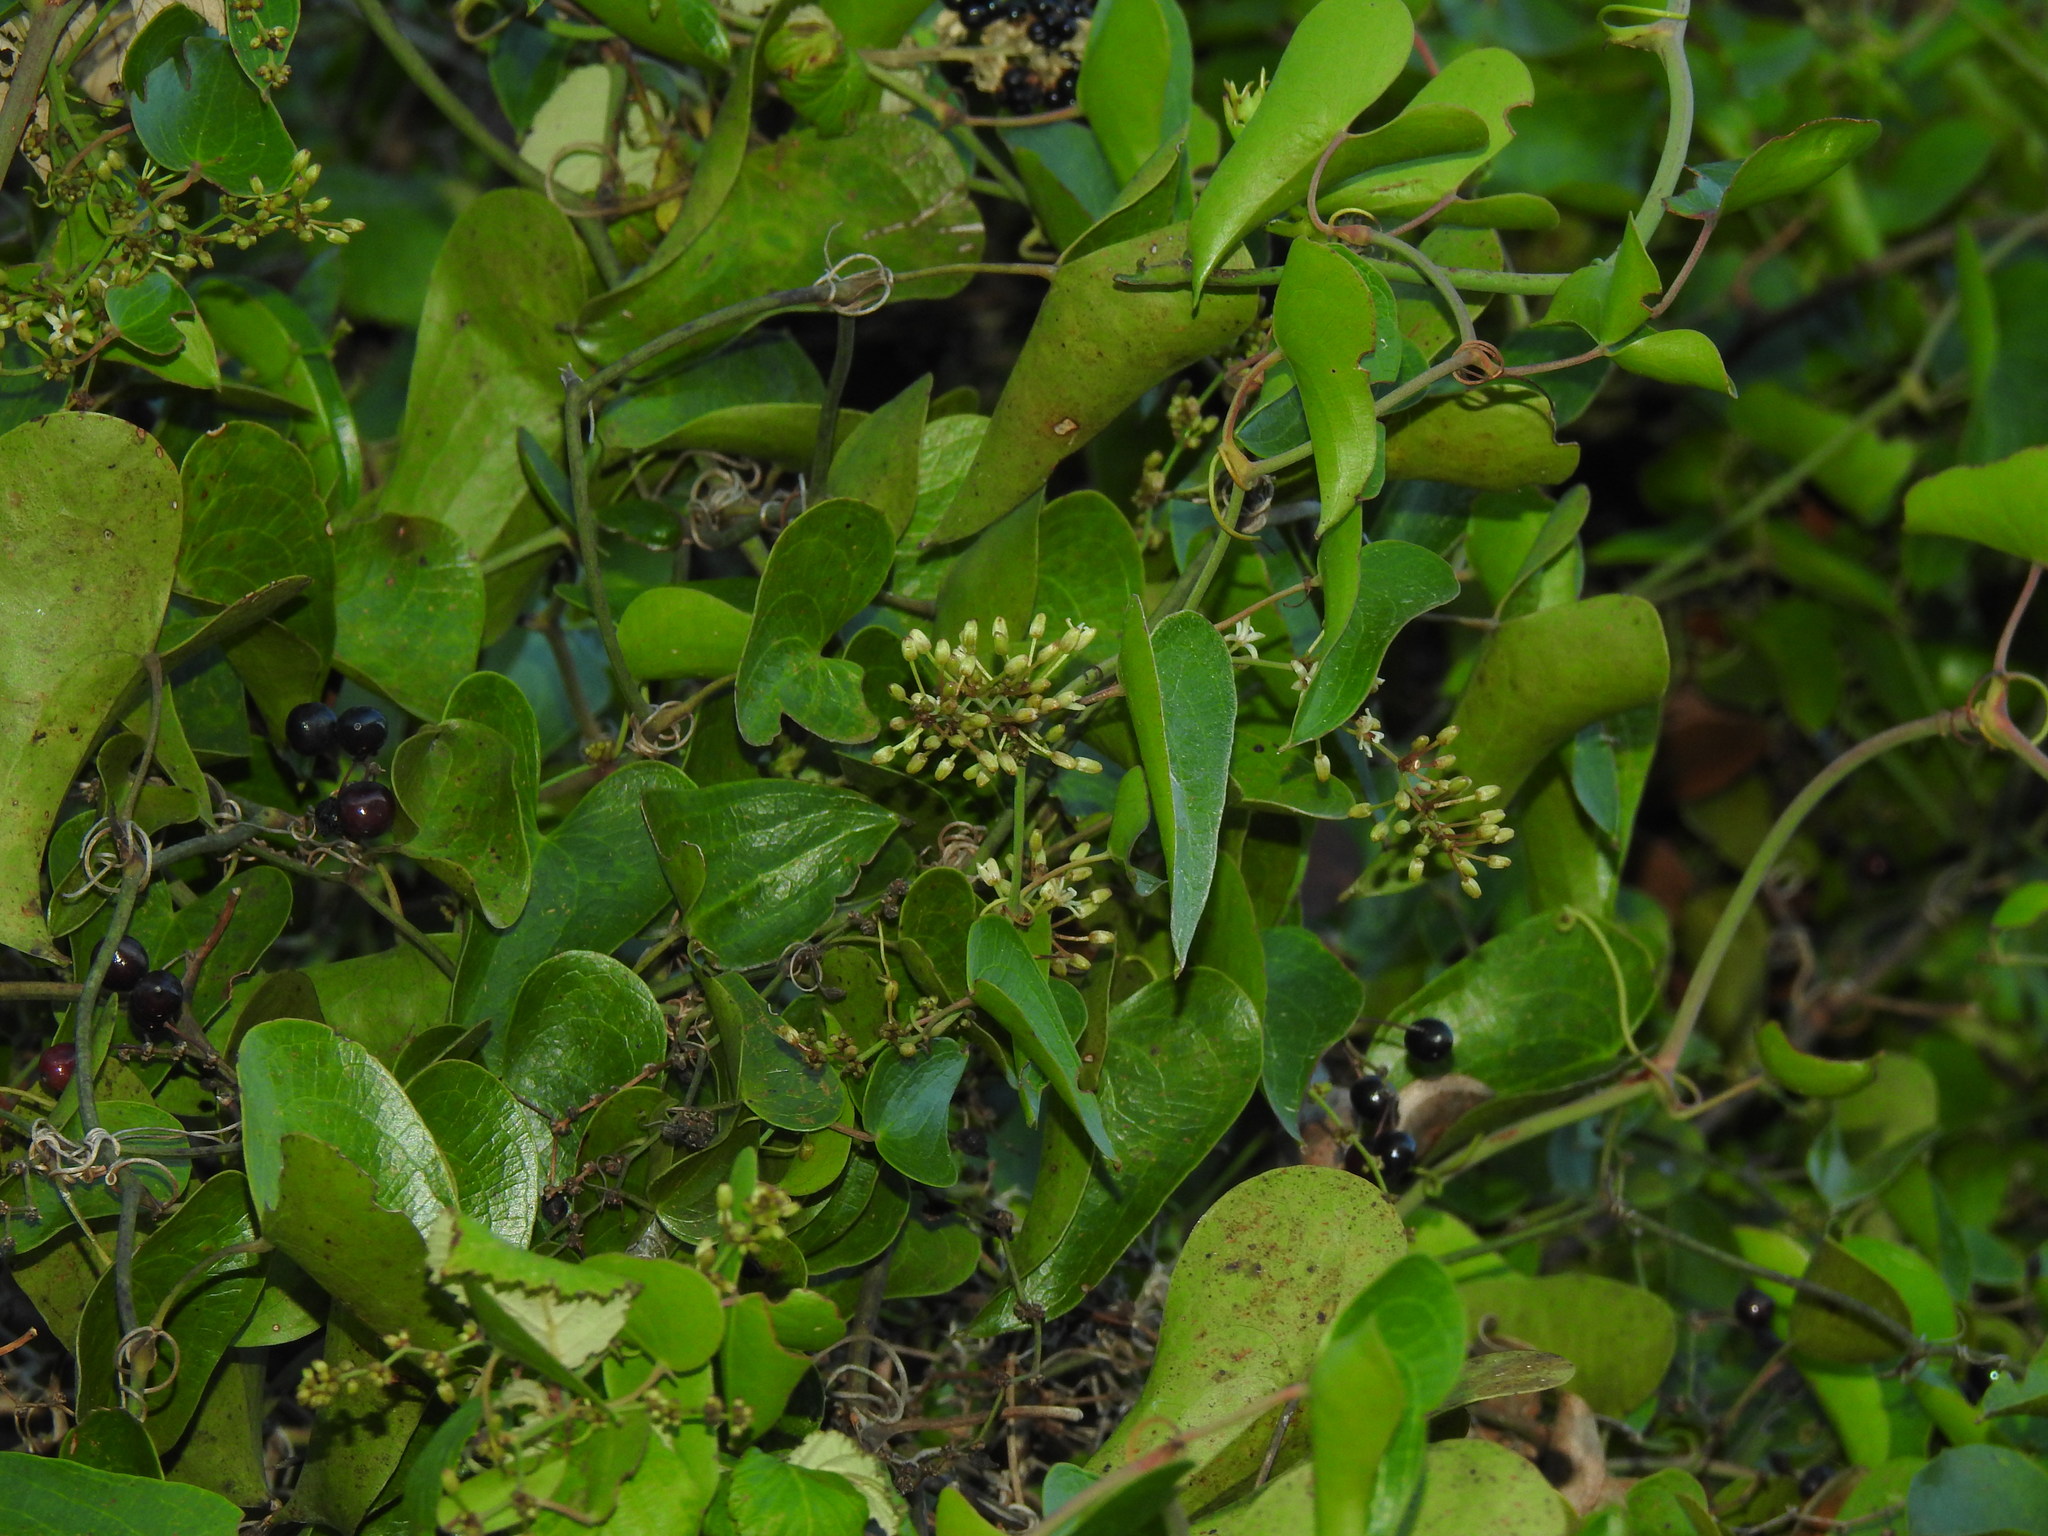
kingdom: Plantae
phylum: Tracheophyta
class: Liliopsida
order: Liliales
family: Smilacaceae
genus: Smilax
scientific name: Smilax aspera
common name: Common smilax
